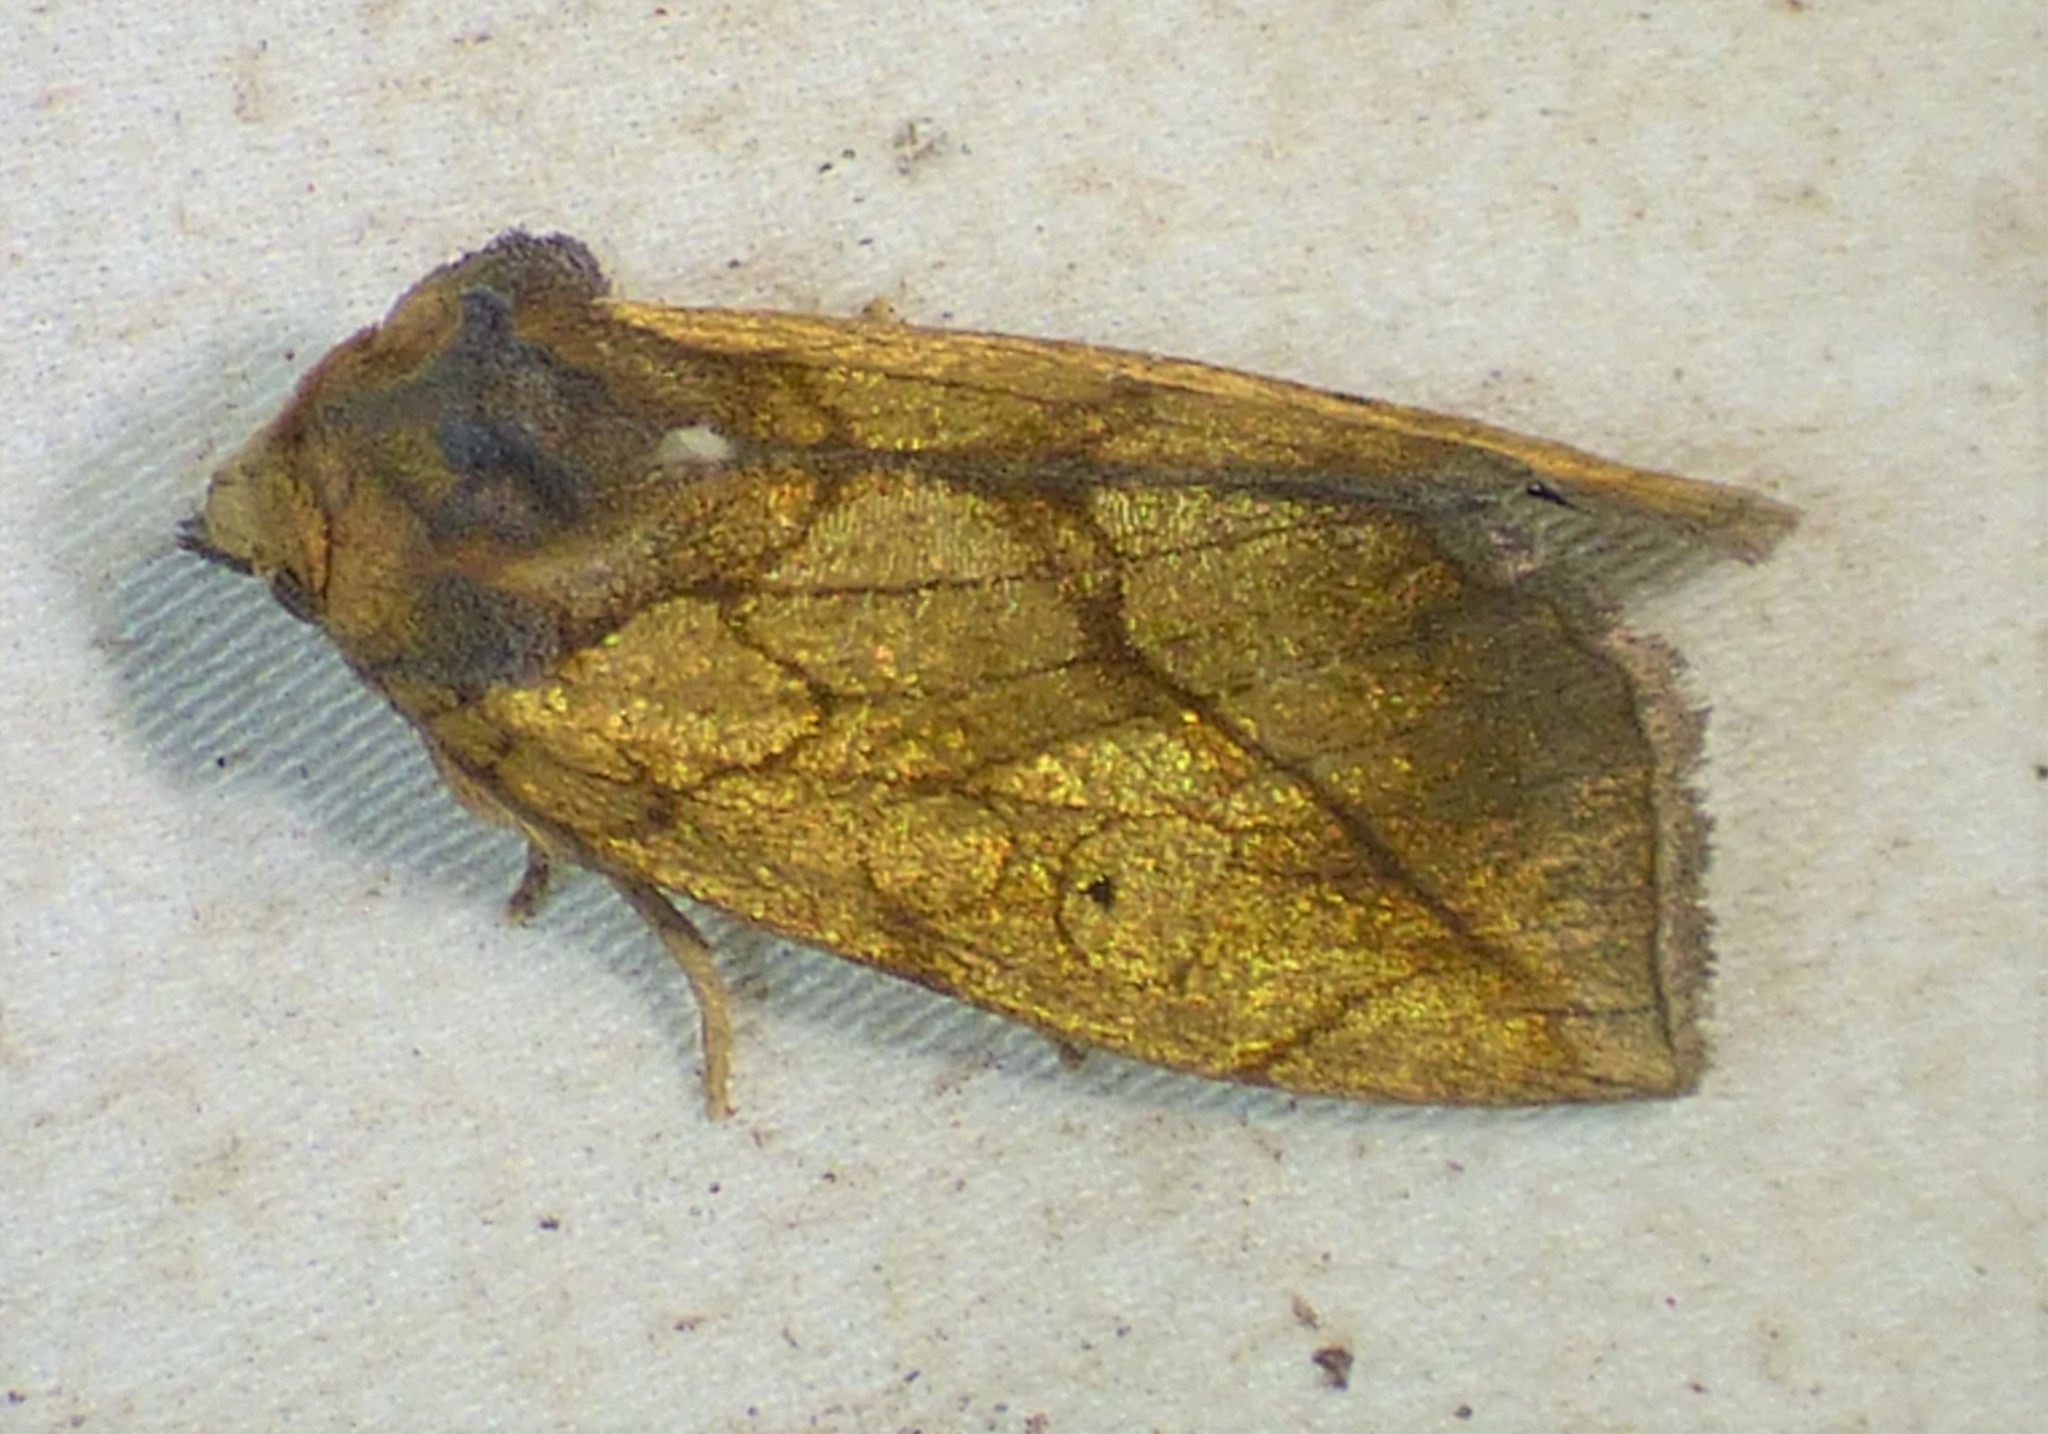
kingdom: Animalia
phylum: Arthropoda
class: Insecta
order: Lepidoptera
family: Noctuidae
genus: Basilodes
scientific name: Basilodes pepita
